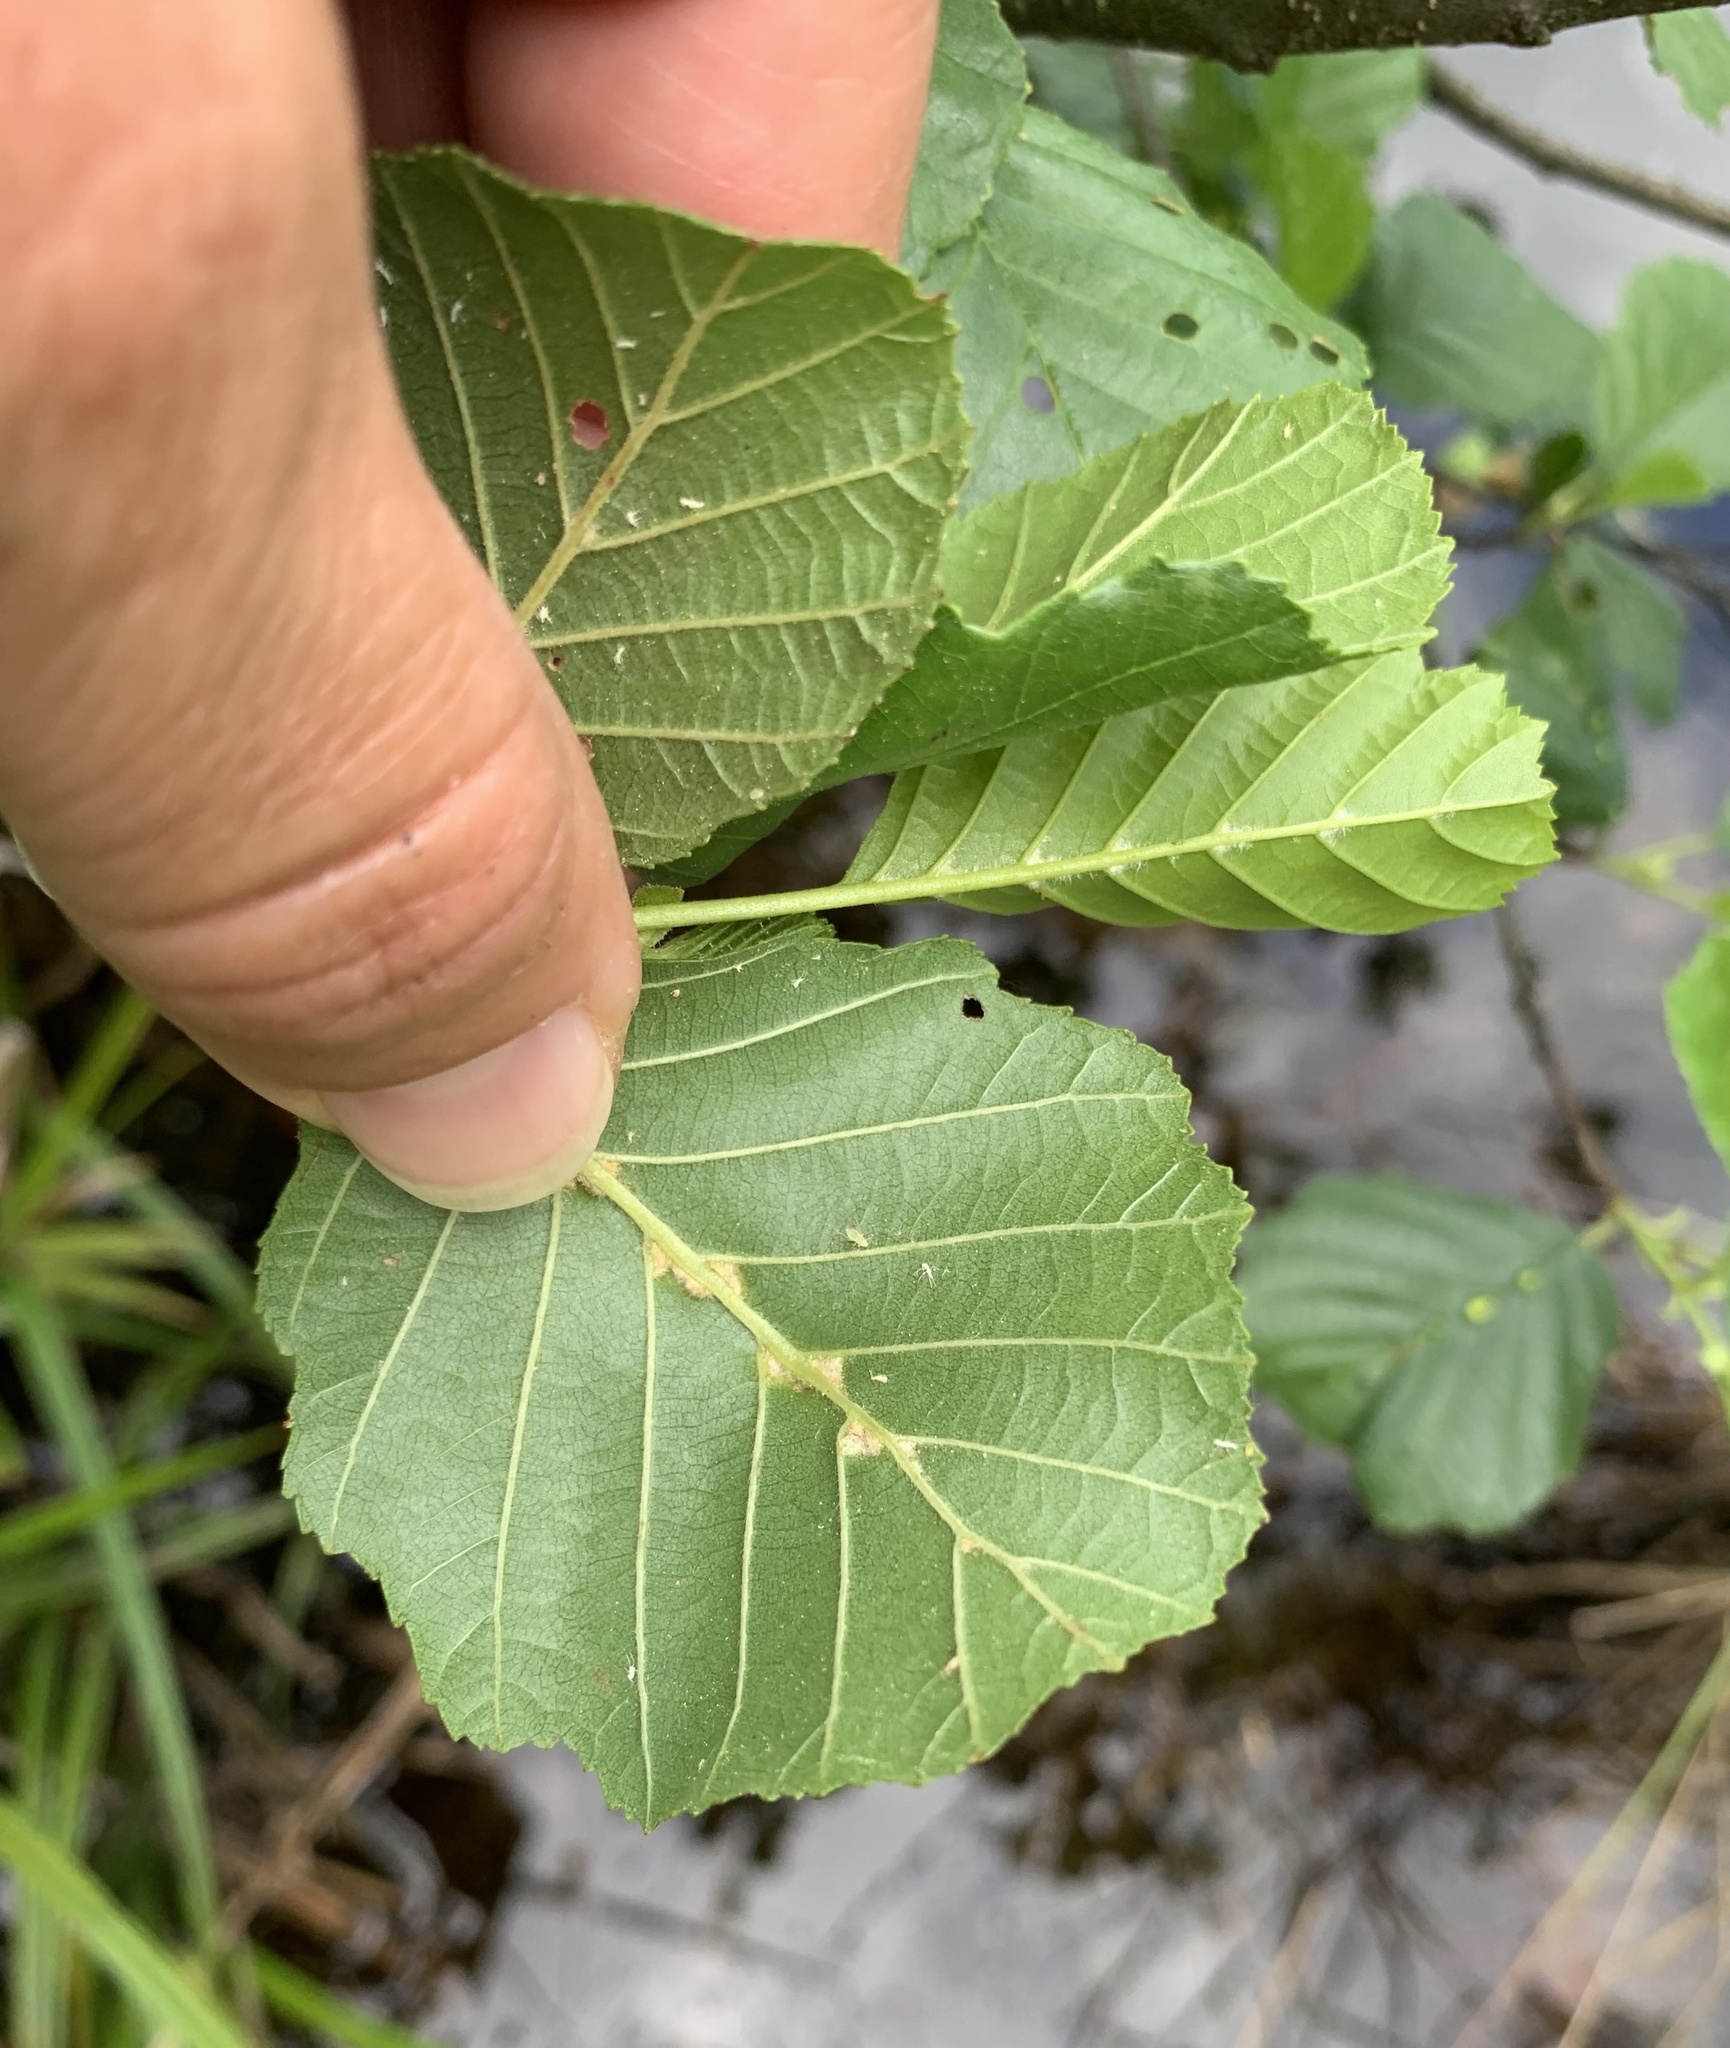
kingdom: Animalia
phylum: Arthropoda
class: Arachnida
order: Trombidiformes
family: Eriophyidae
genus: Eriophyes
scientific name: Eriophyes inangulis
